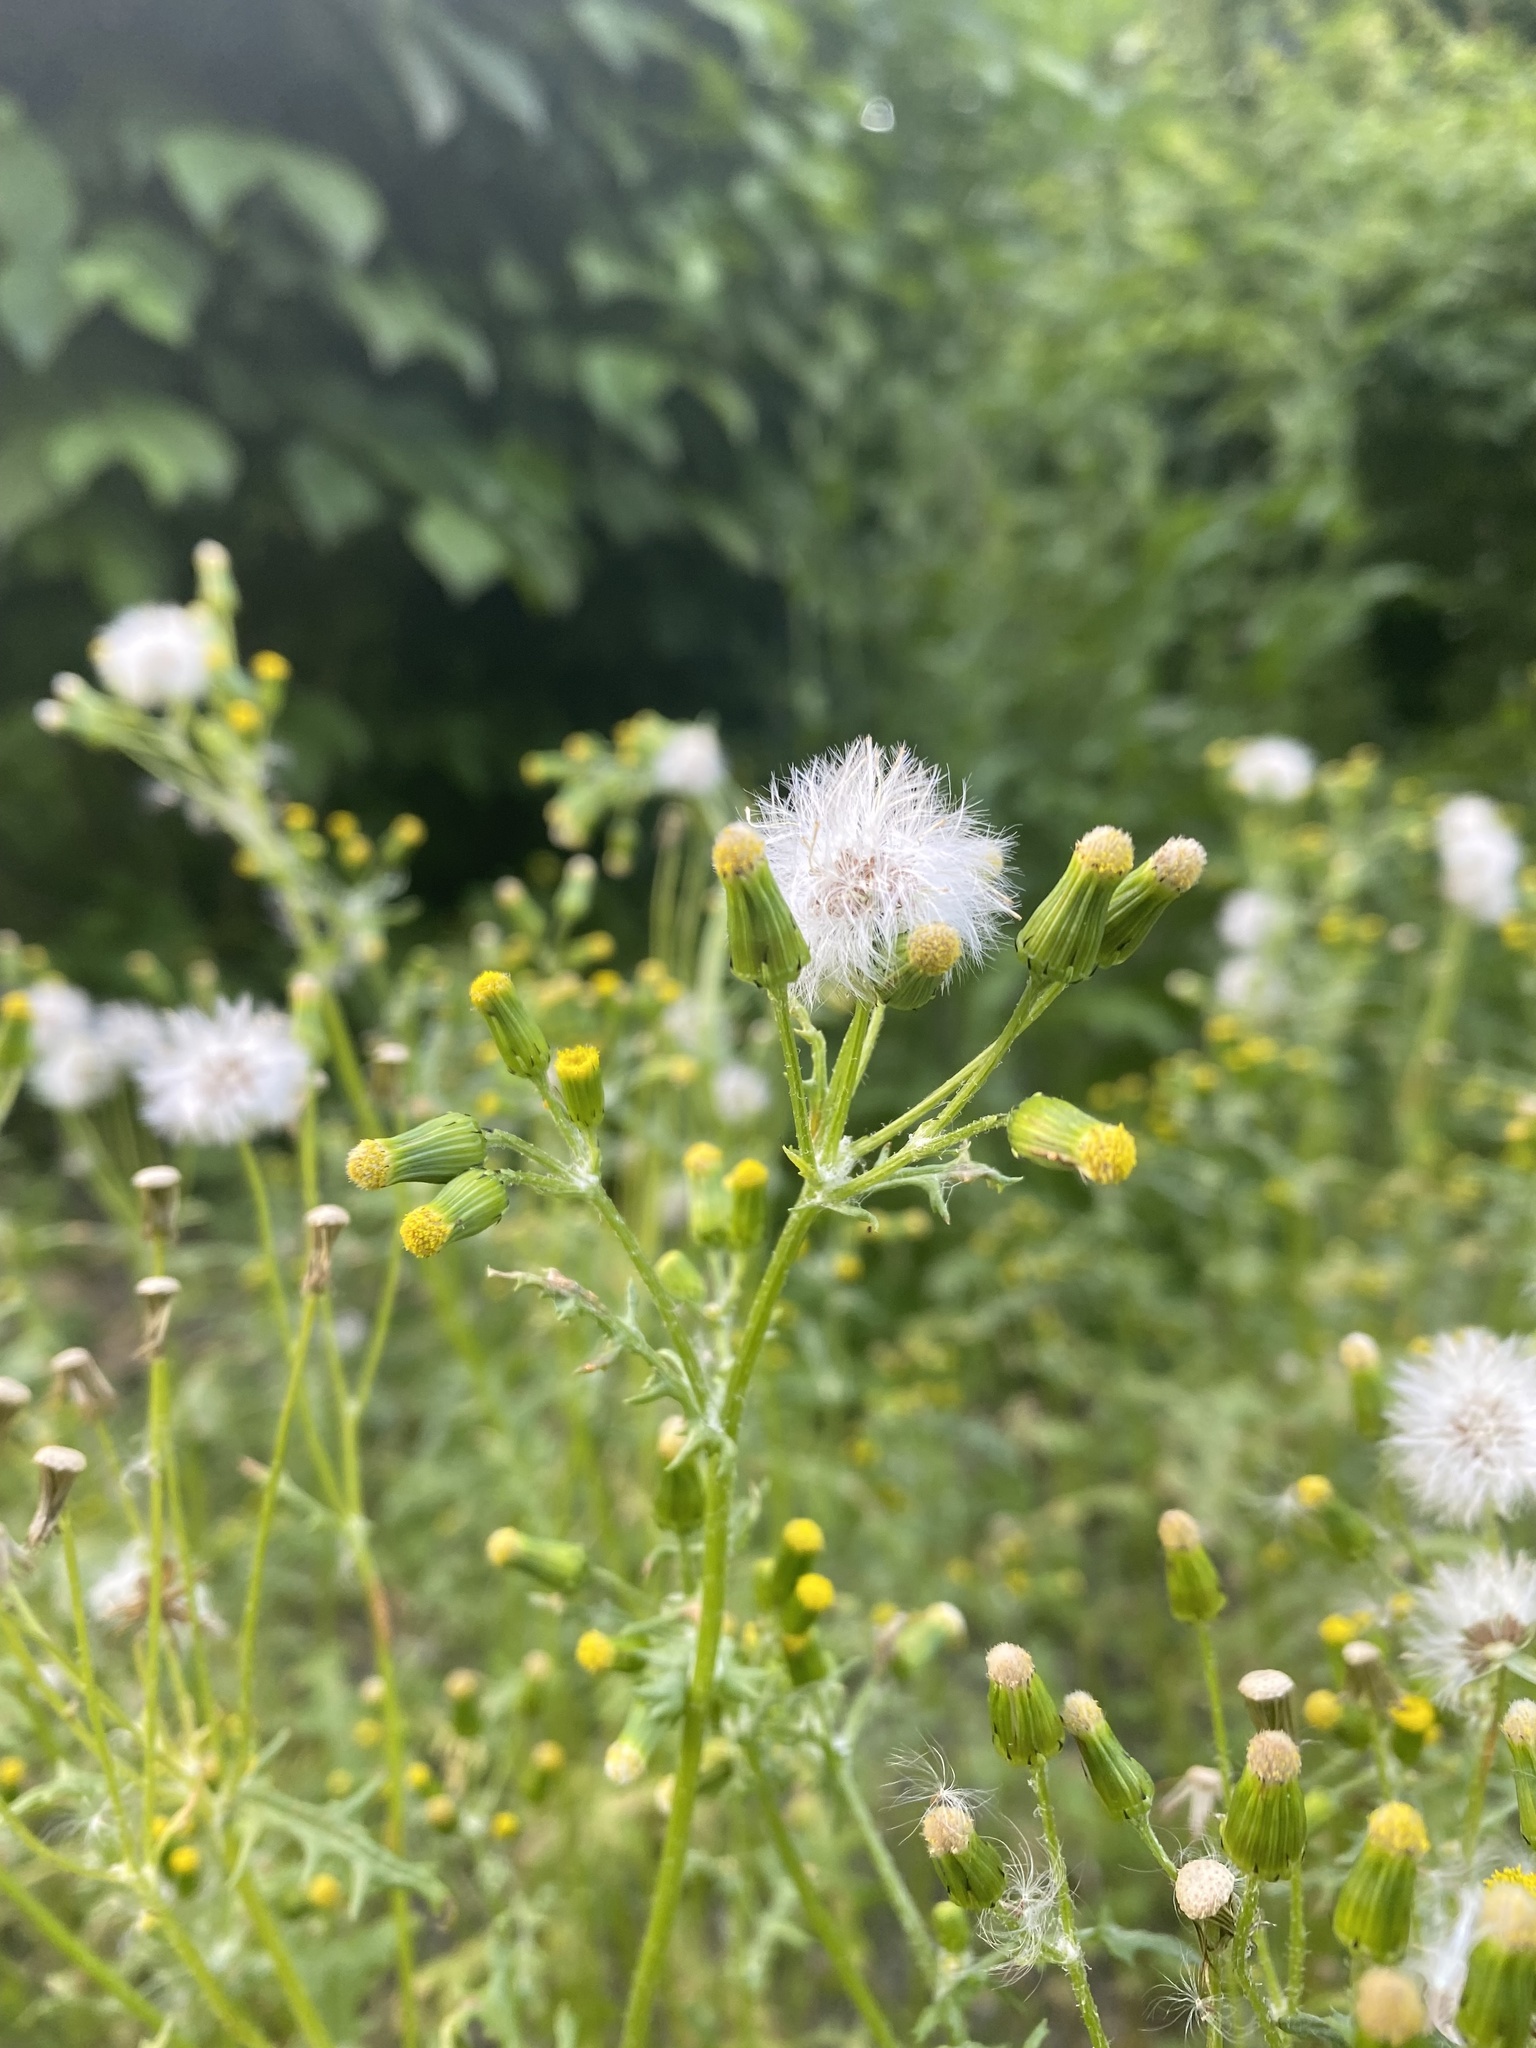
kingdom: Plantae
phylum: Tracheophyta
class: Magnoliopsida
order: Asterales
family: Asteraceae
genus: Senecio
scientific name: Senecio vulgaris
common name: Old-man-in-the-spring
